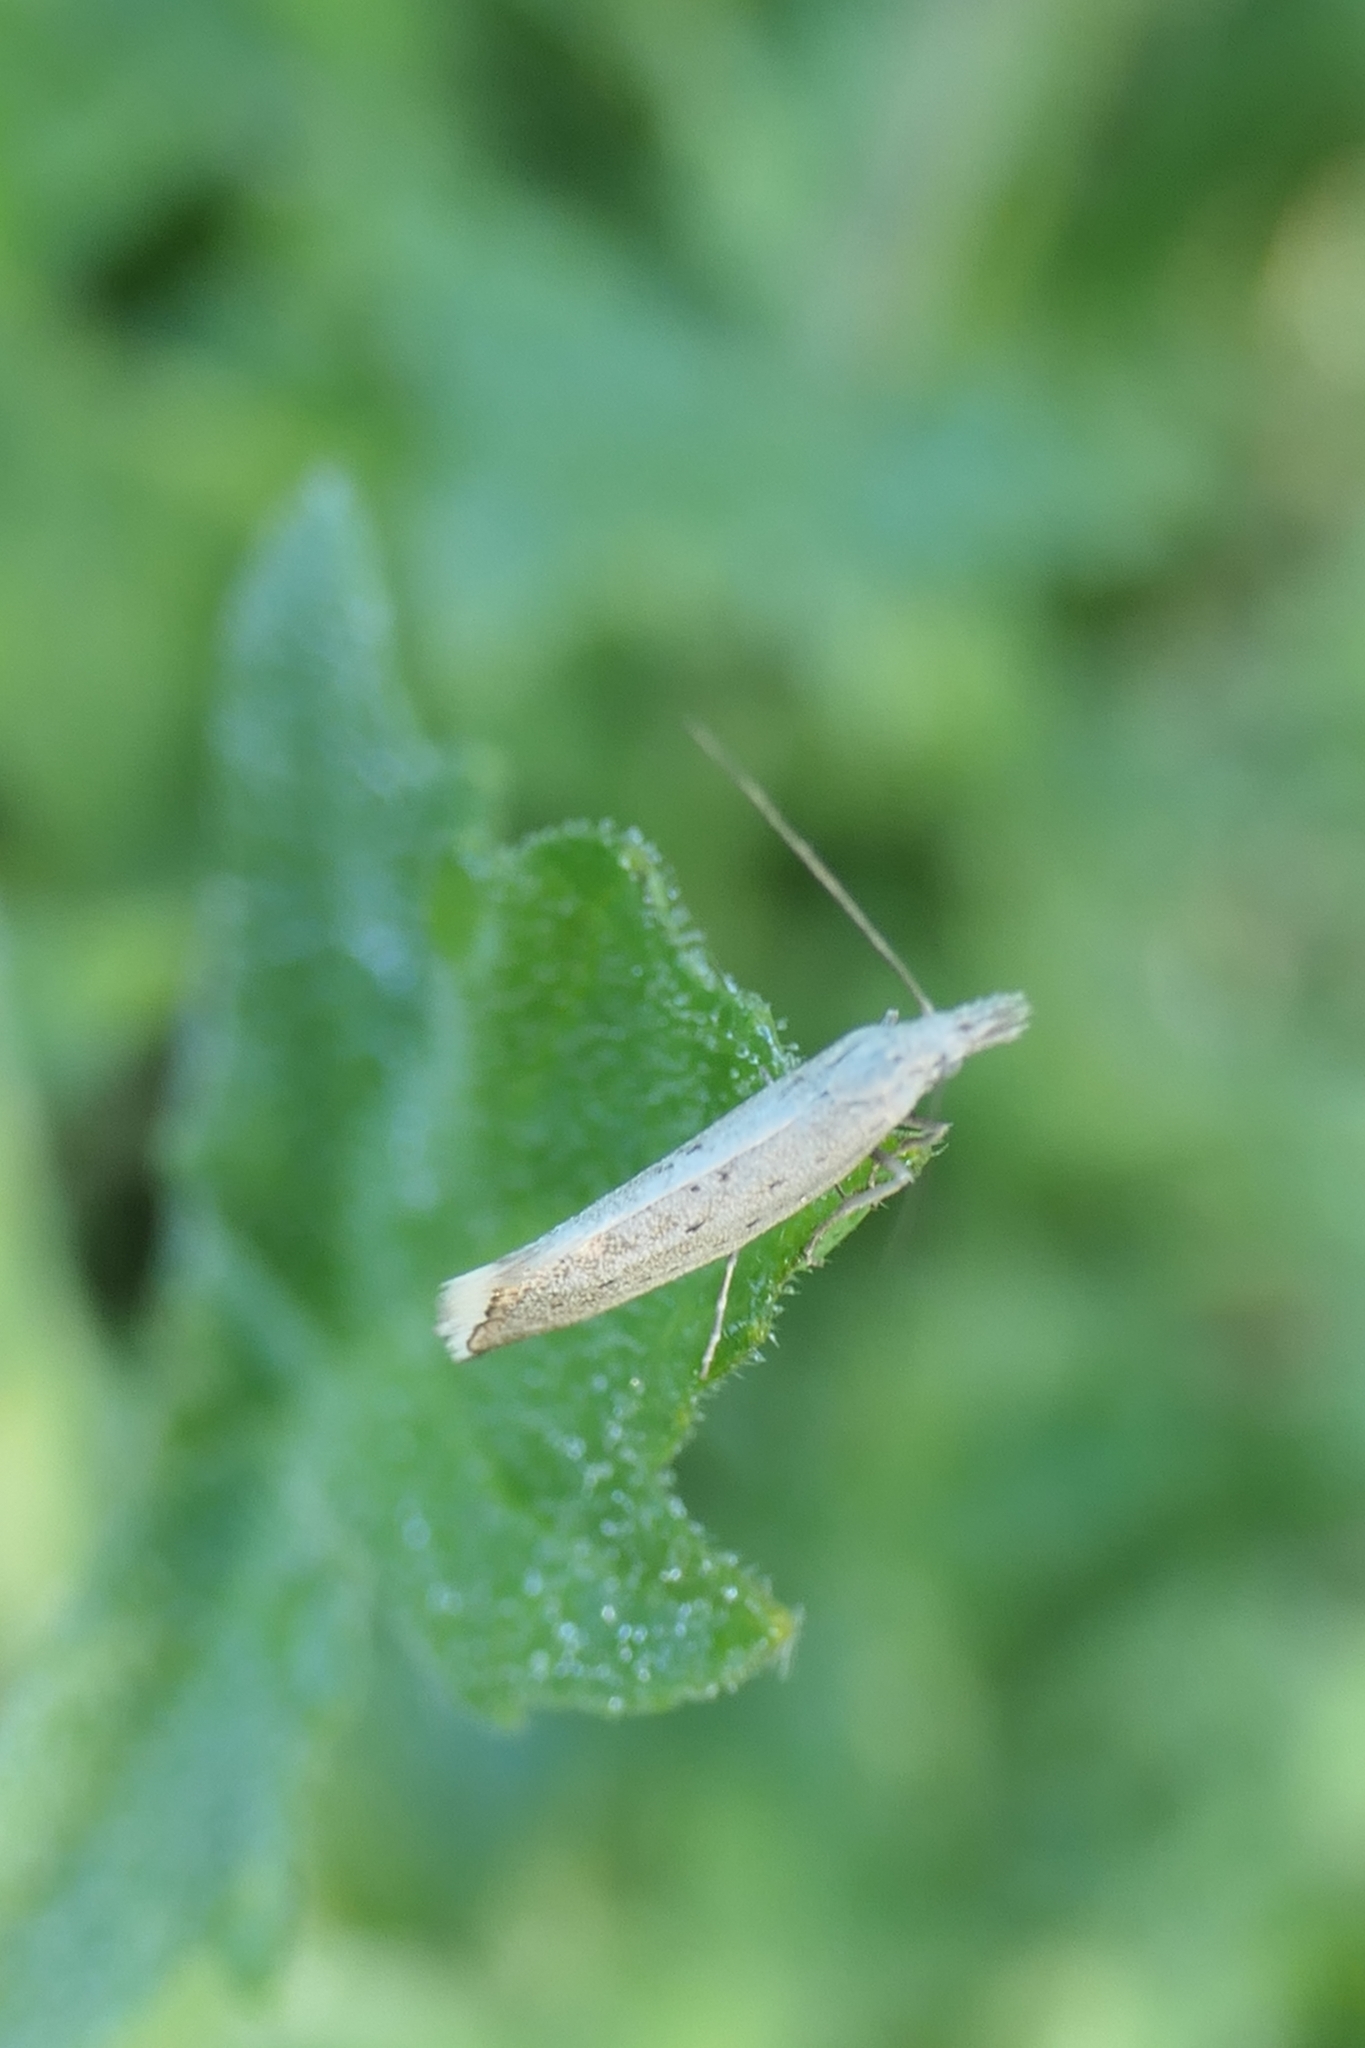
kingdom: Animalia
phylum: Arthropoda
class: Insecta
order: Lepidoptera
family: Glyphipterigidae
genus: Glyphipterix
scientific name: Glyphipterix achlyoessa
